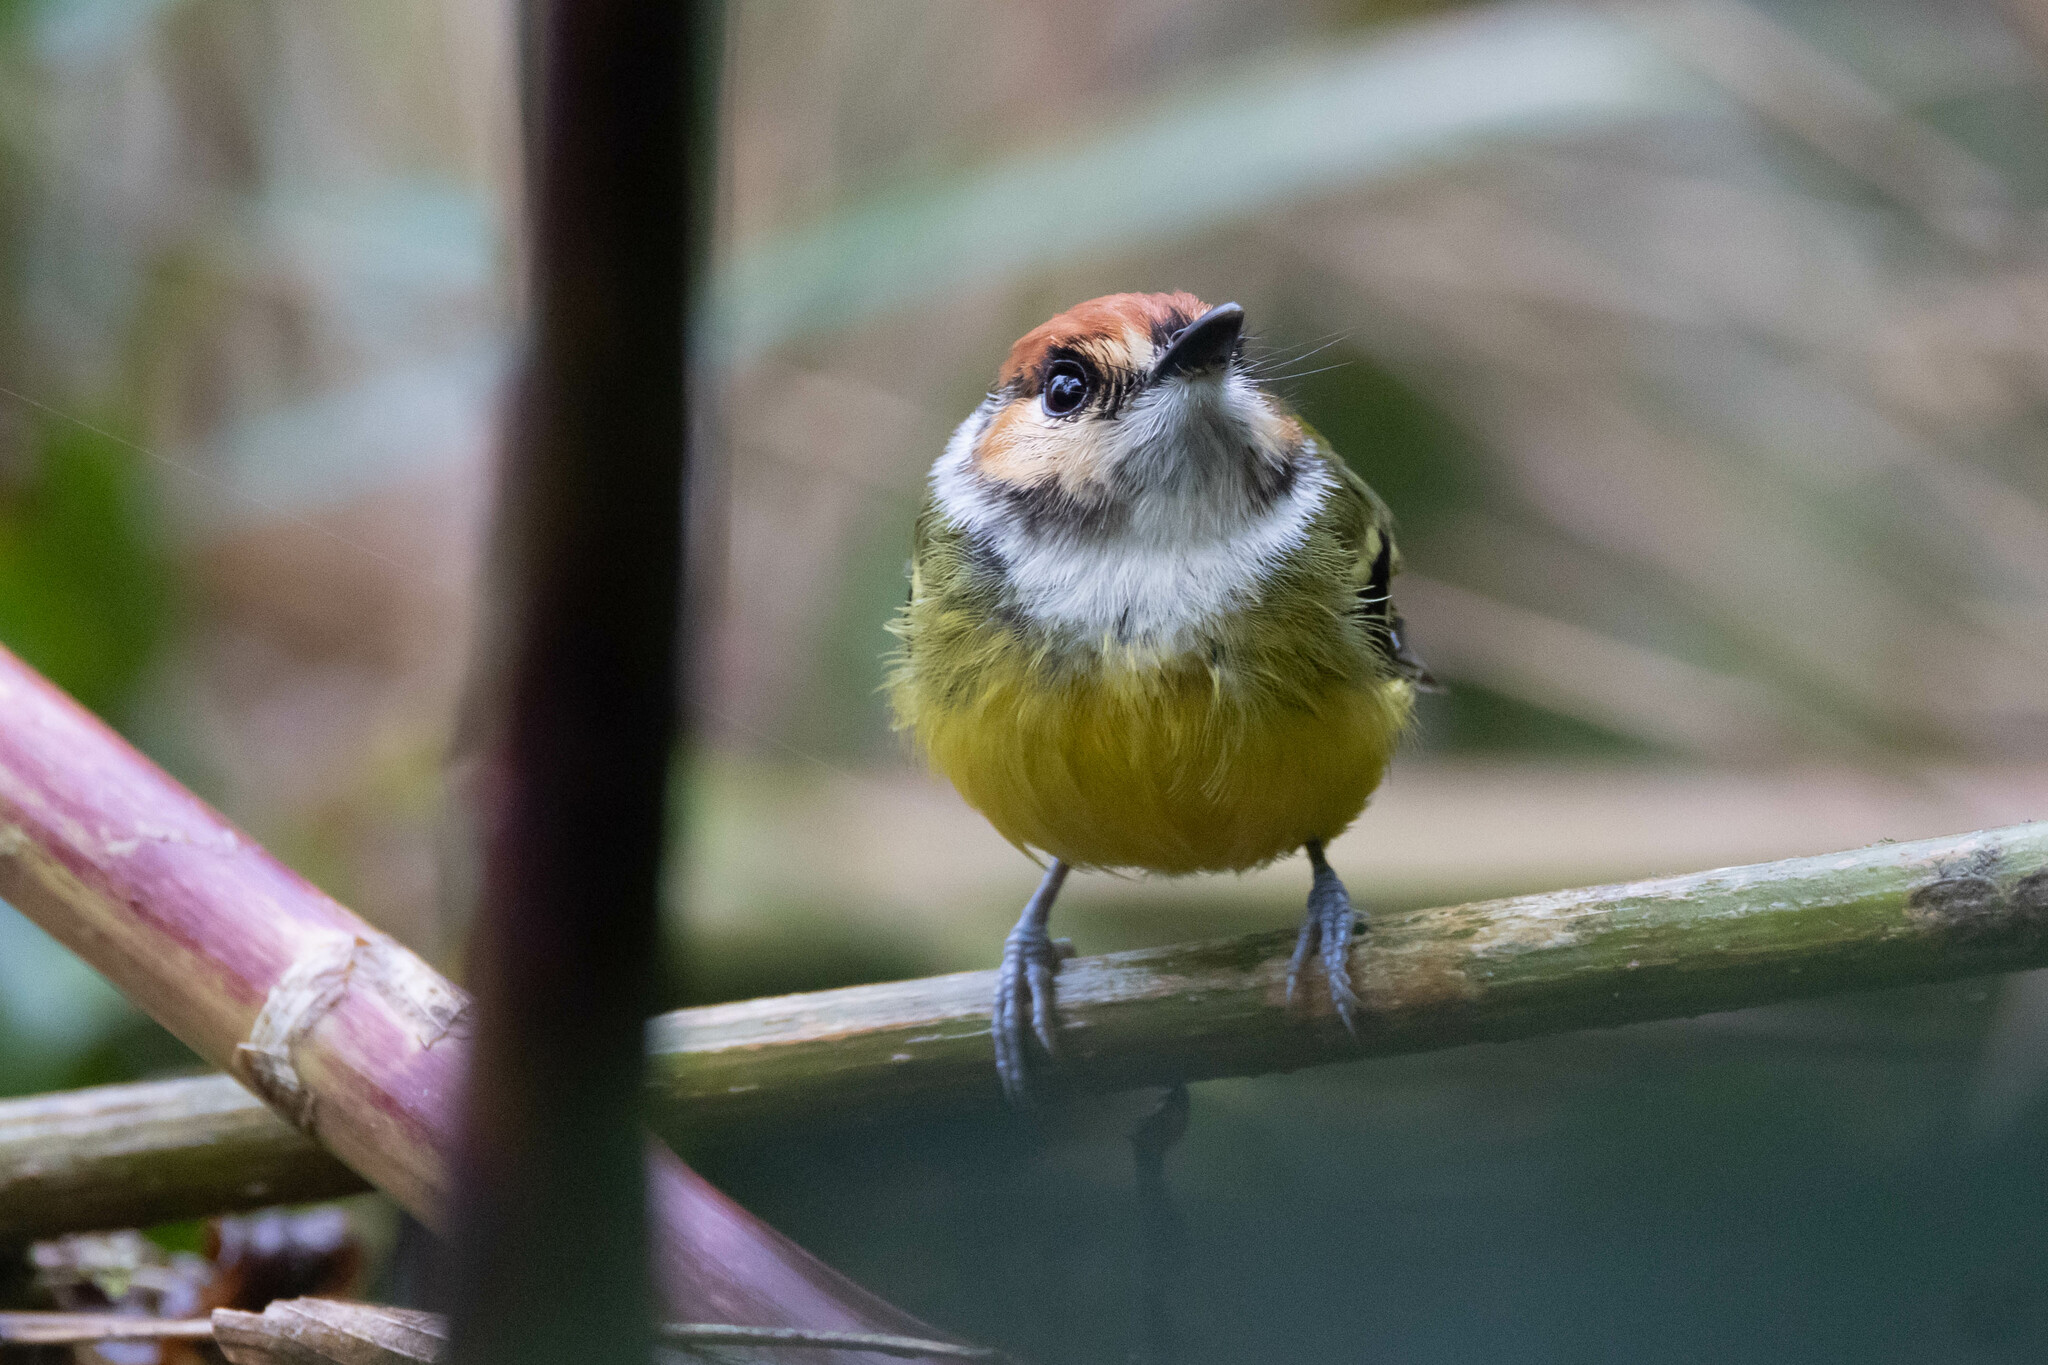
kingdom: Animalia
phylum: Chordata
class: Aves
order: Passeriformes
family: Tyrannidae
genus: Poecilotriccus
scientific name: Poecilotriccus ruficeps
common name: Rufous-crowned tody-flycatcher
